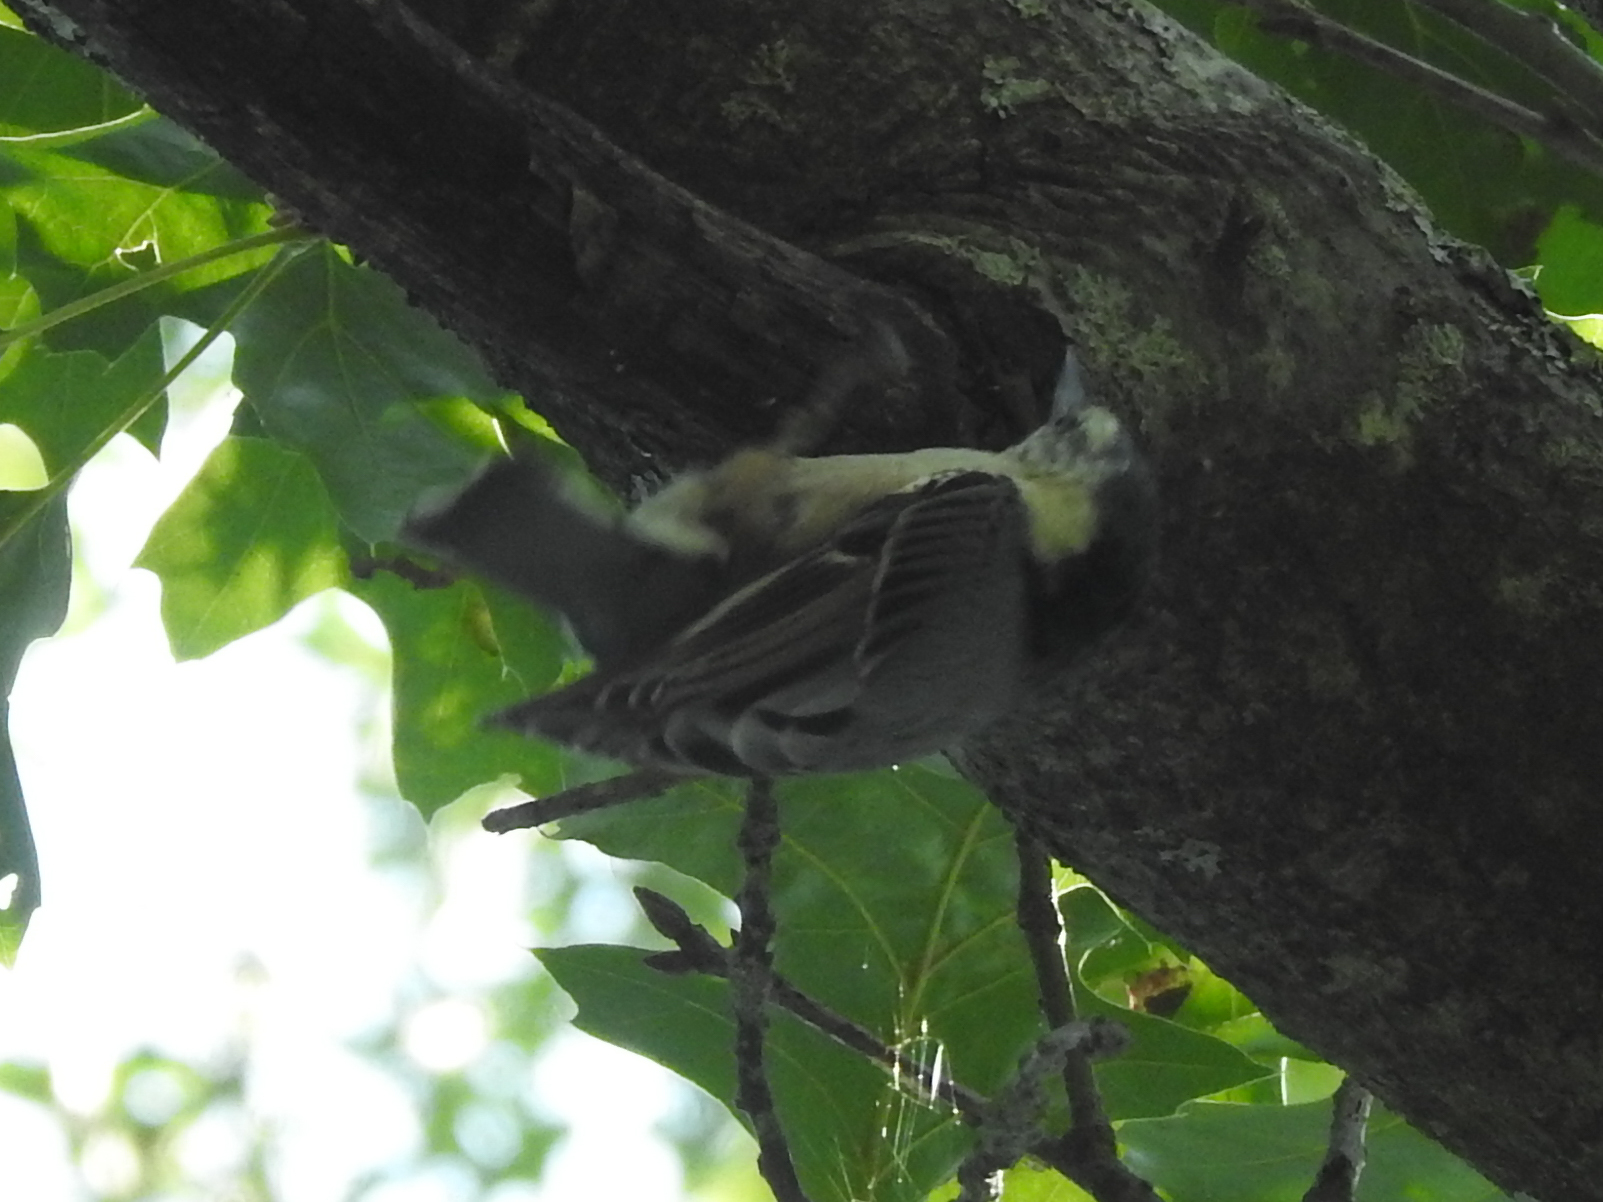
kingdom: Animalia
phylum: Chordata
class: Aves
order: Passeriformes
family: Sittidae
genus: Sitta
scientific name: Sitta carolinensis
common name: White-breasted nuthatch
